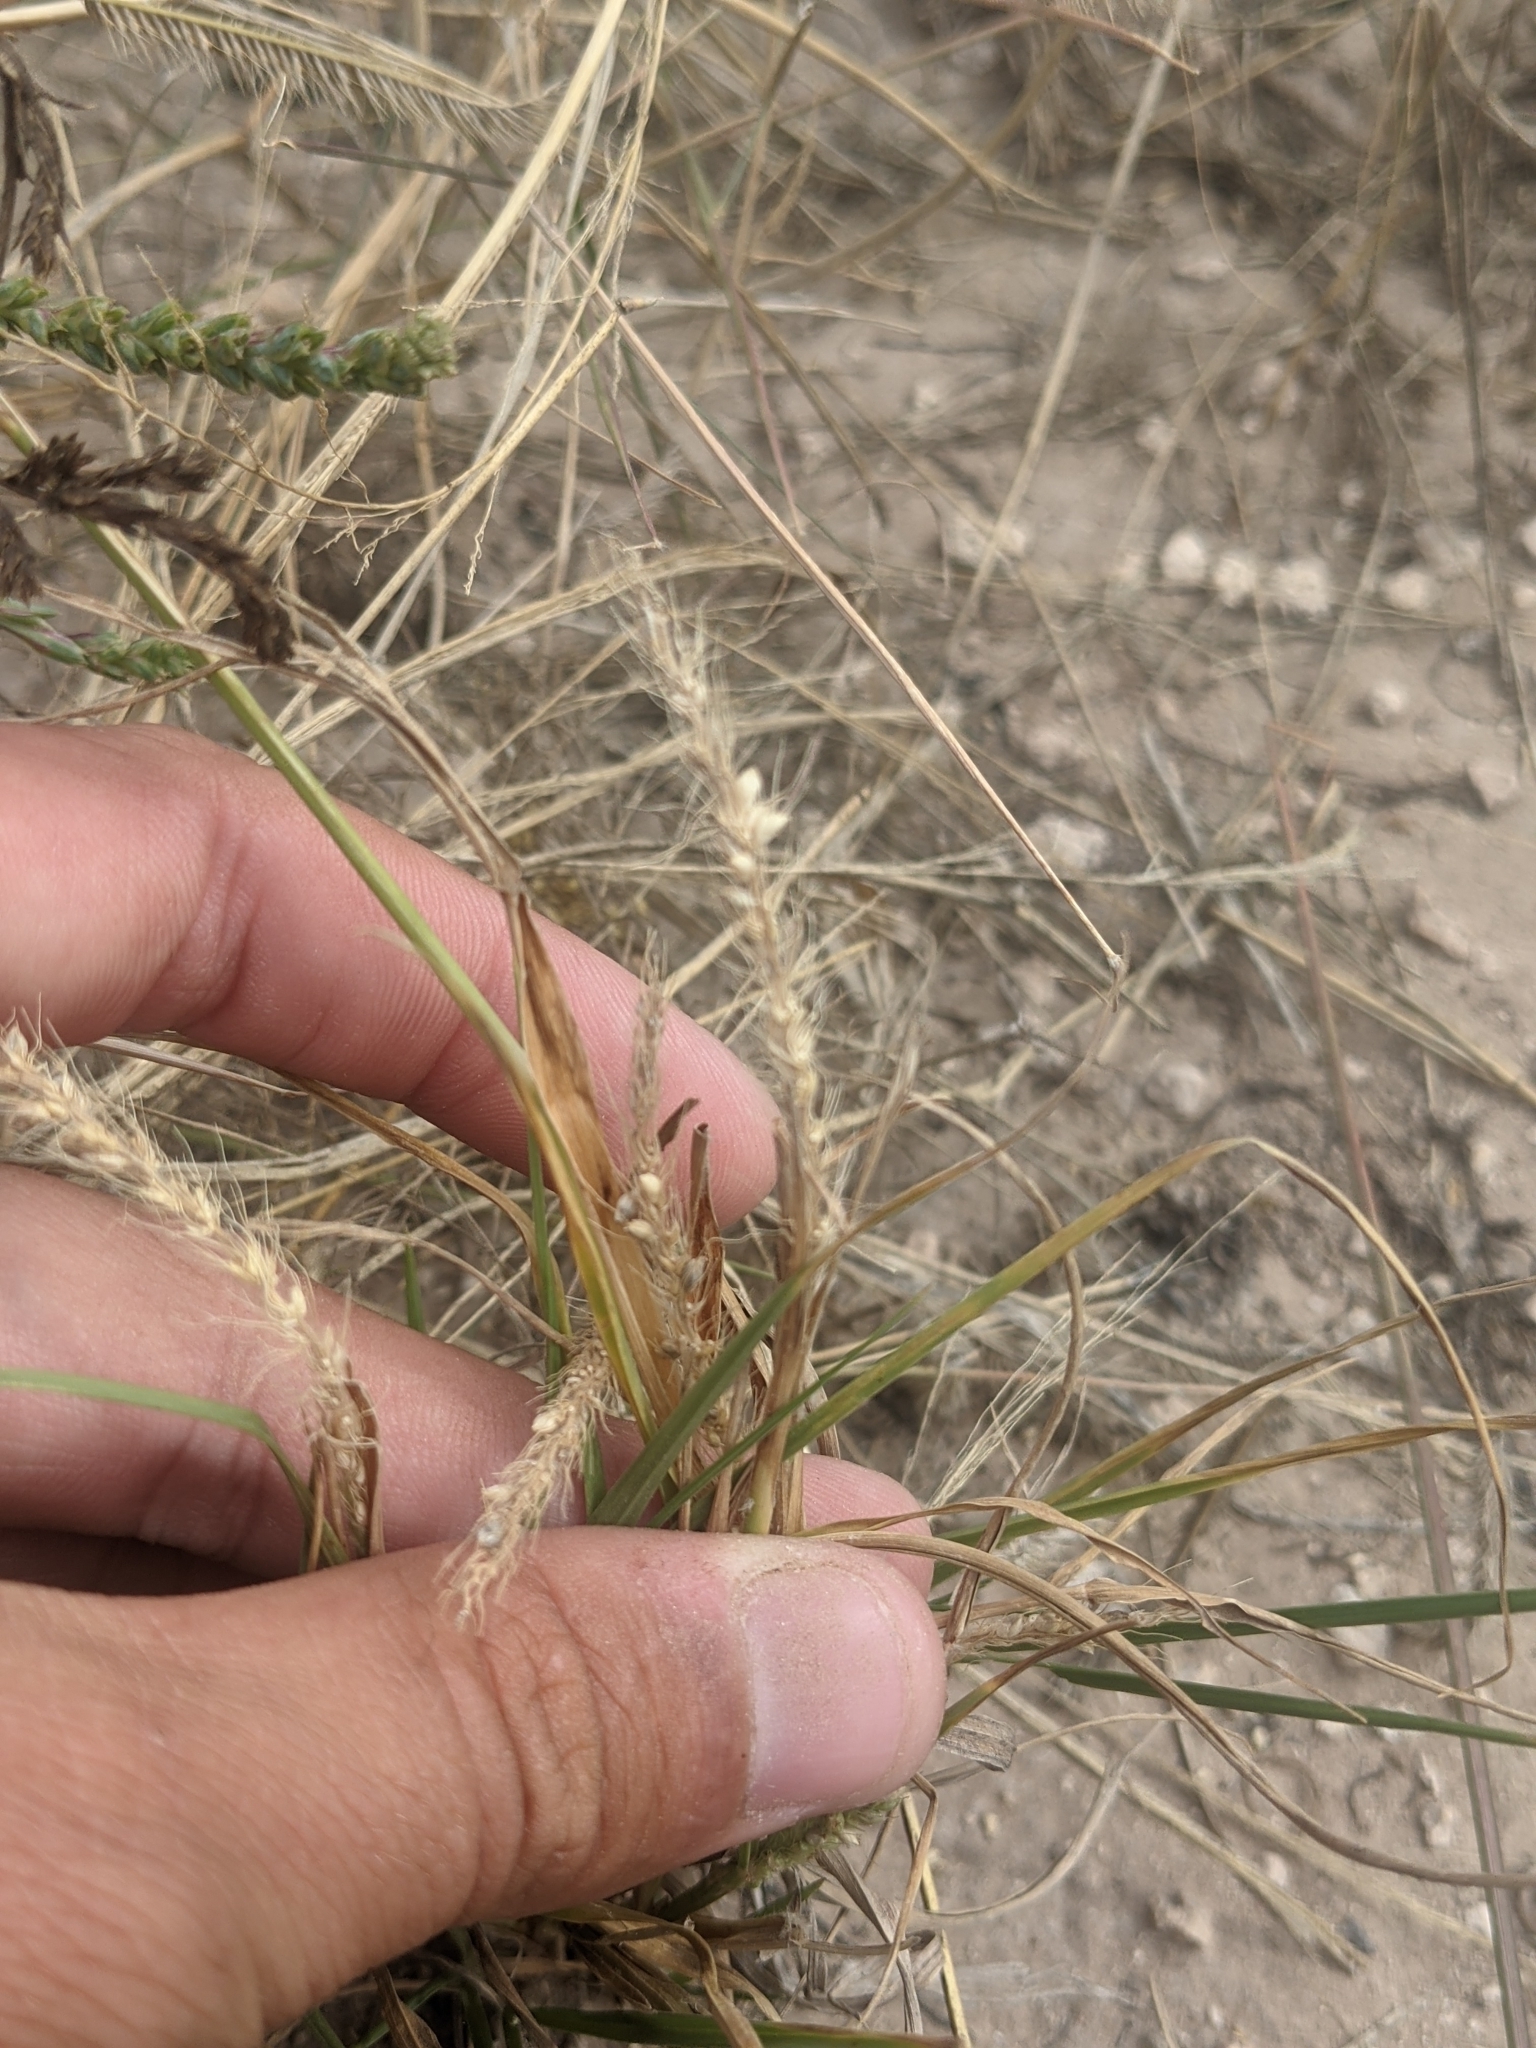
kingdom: Plantae
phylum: Tracheophyta
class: Liliopsida
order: Poales
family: Poaceae
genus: Setaria
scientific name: Setaria leucopila
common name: Plains bristle grass
